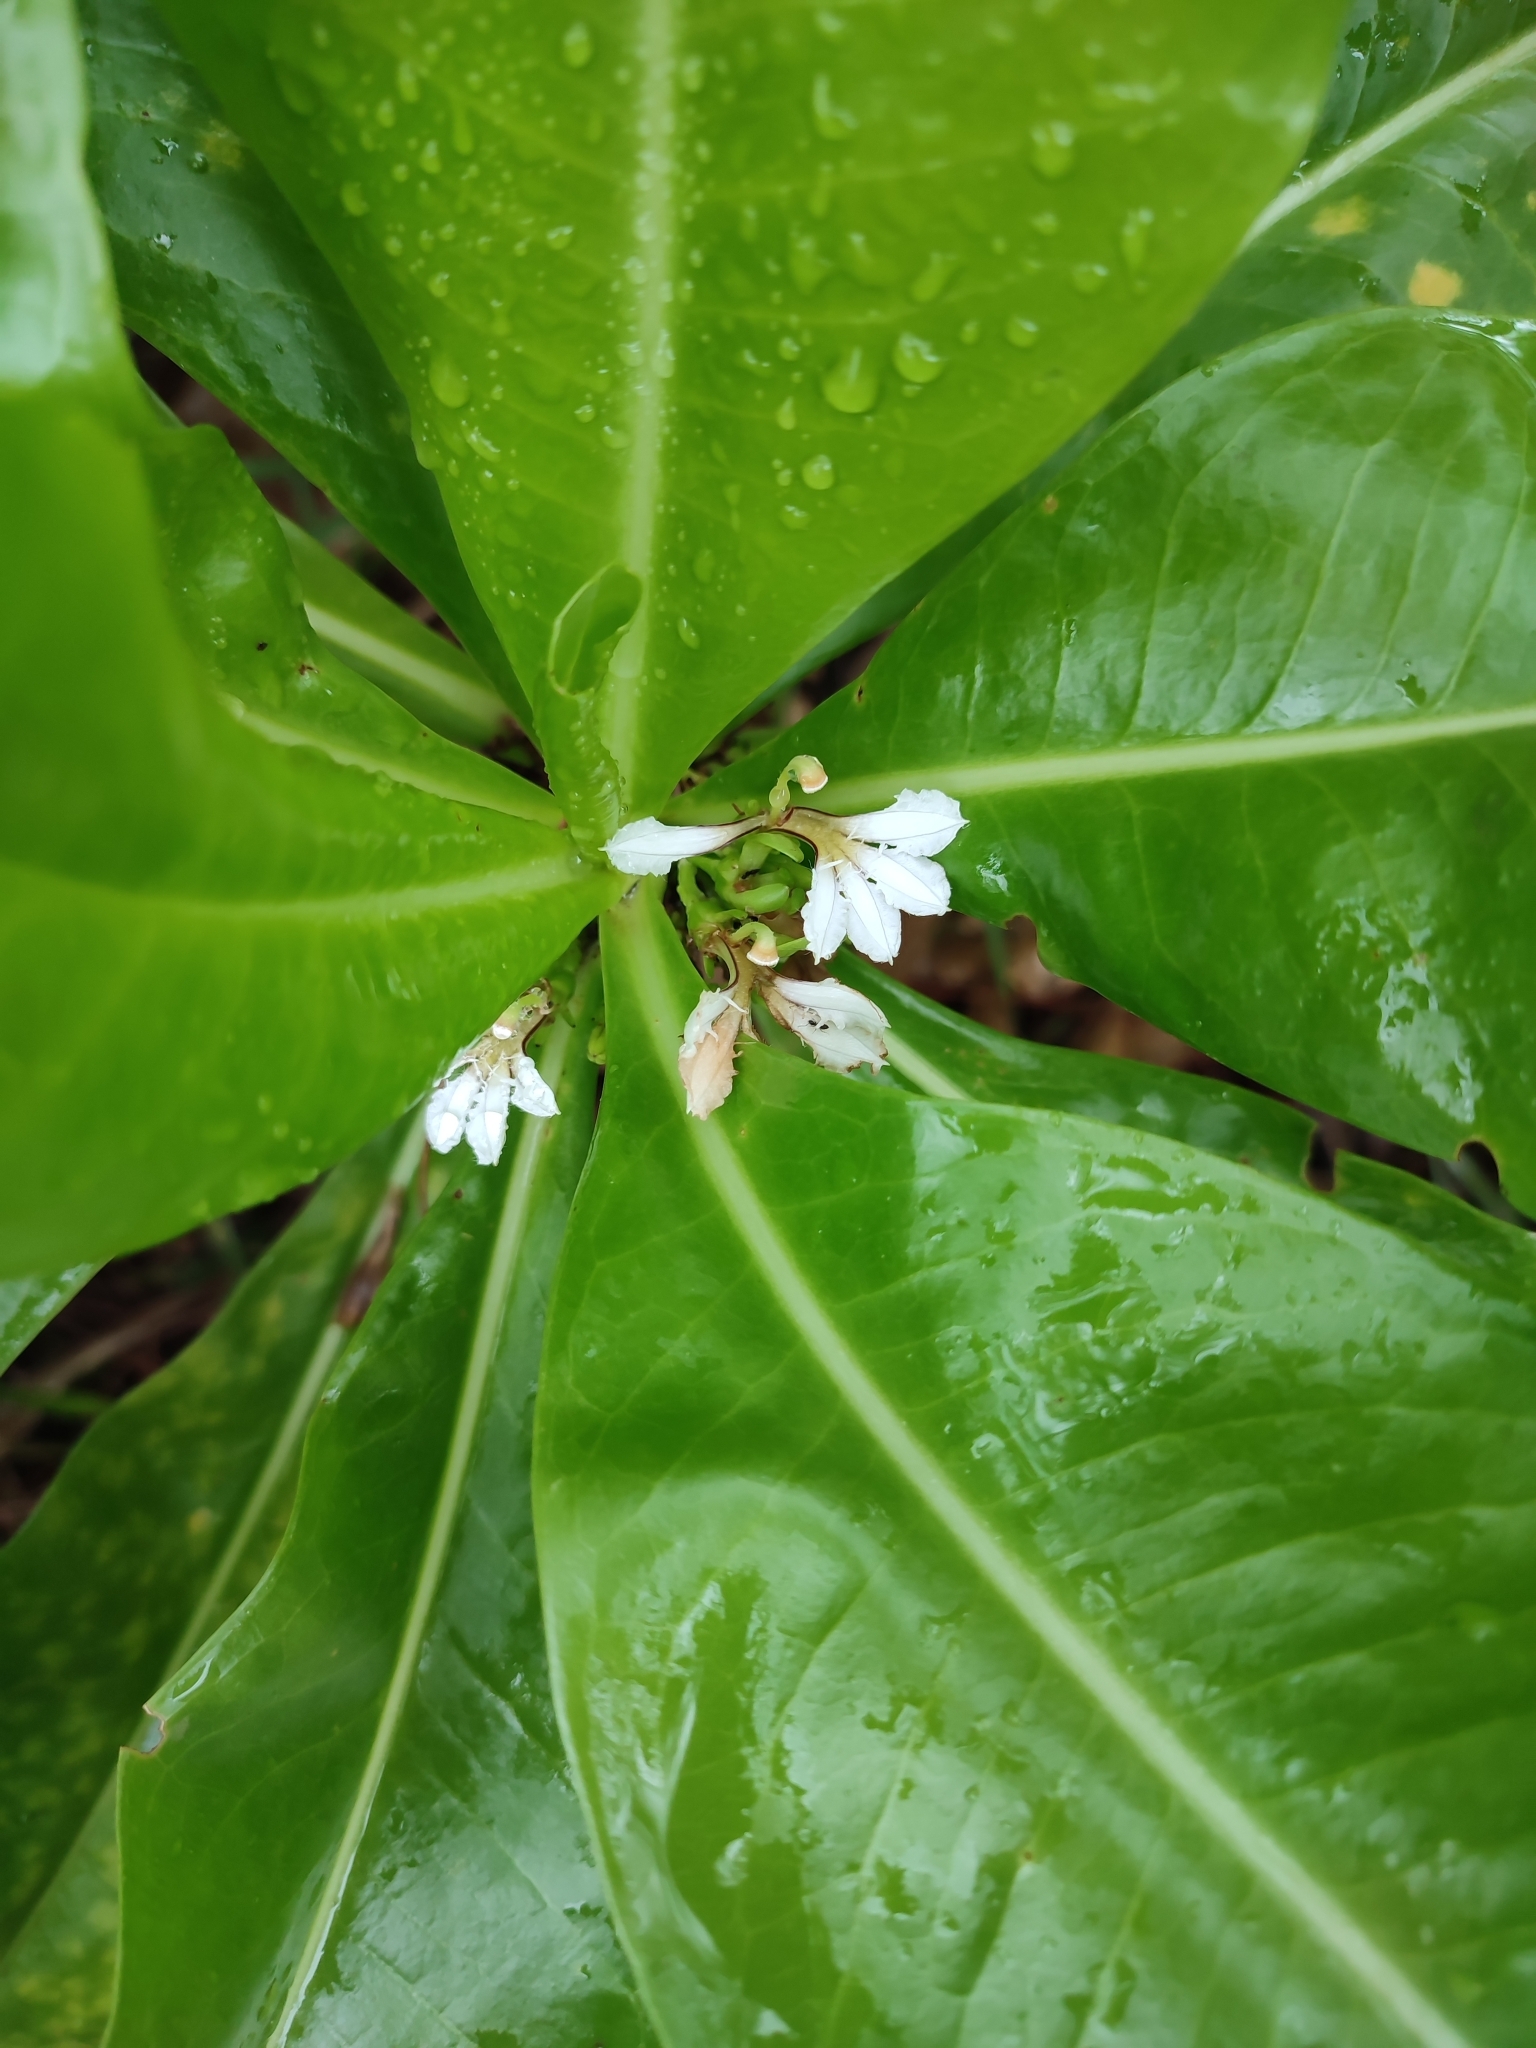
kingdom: Plantae
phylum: Tracheophyta
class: Magnoliopsida
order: Asterales
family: Goodeniaceae
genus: Scaevola
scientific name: Scaevola taccada
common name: Sea lettucetree
